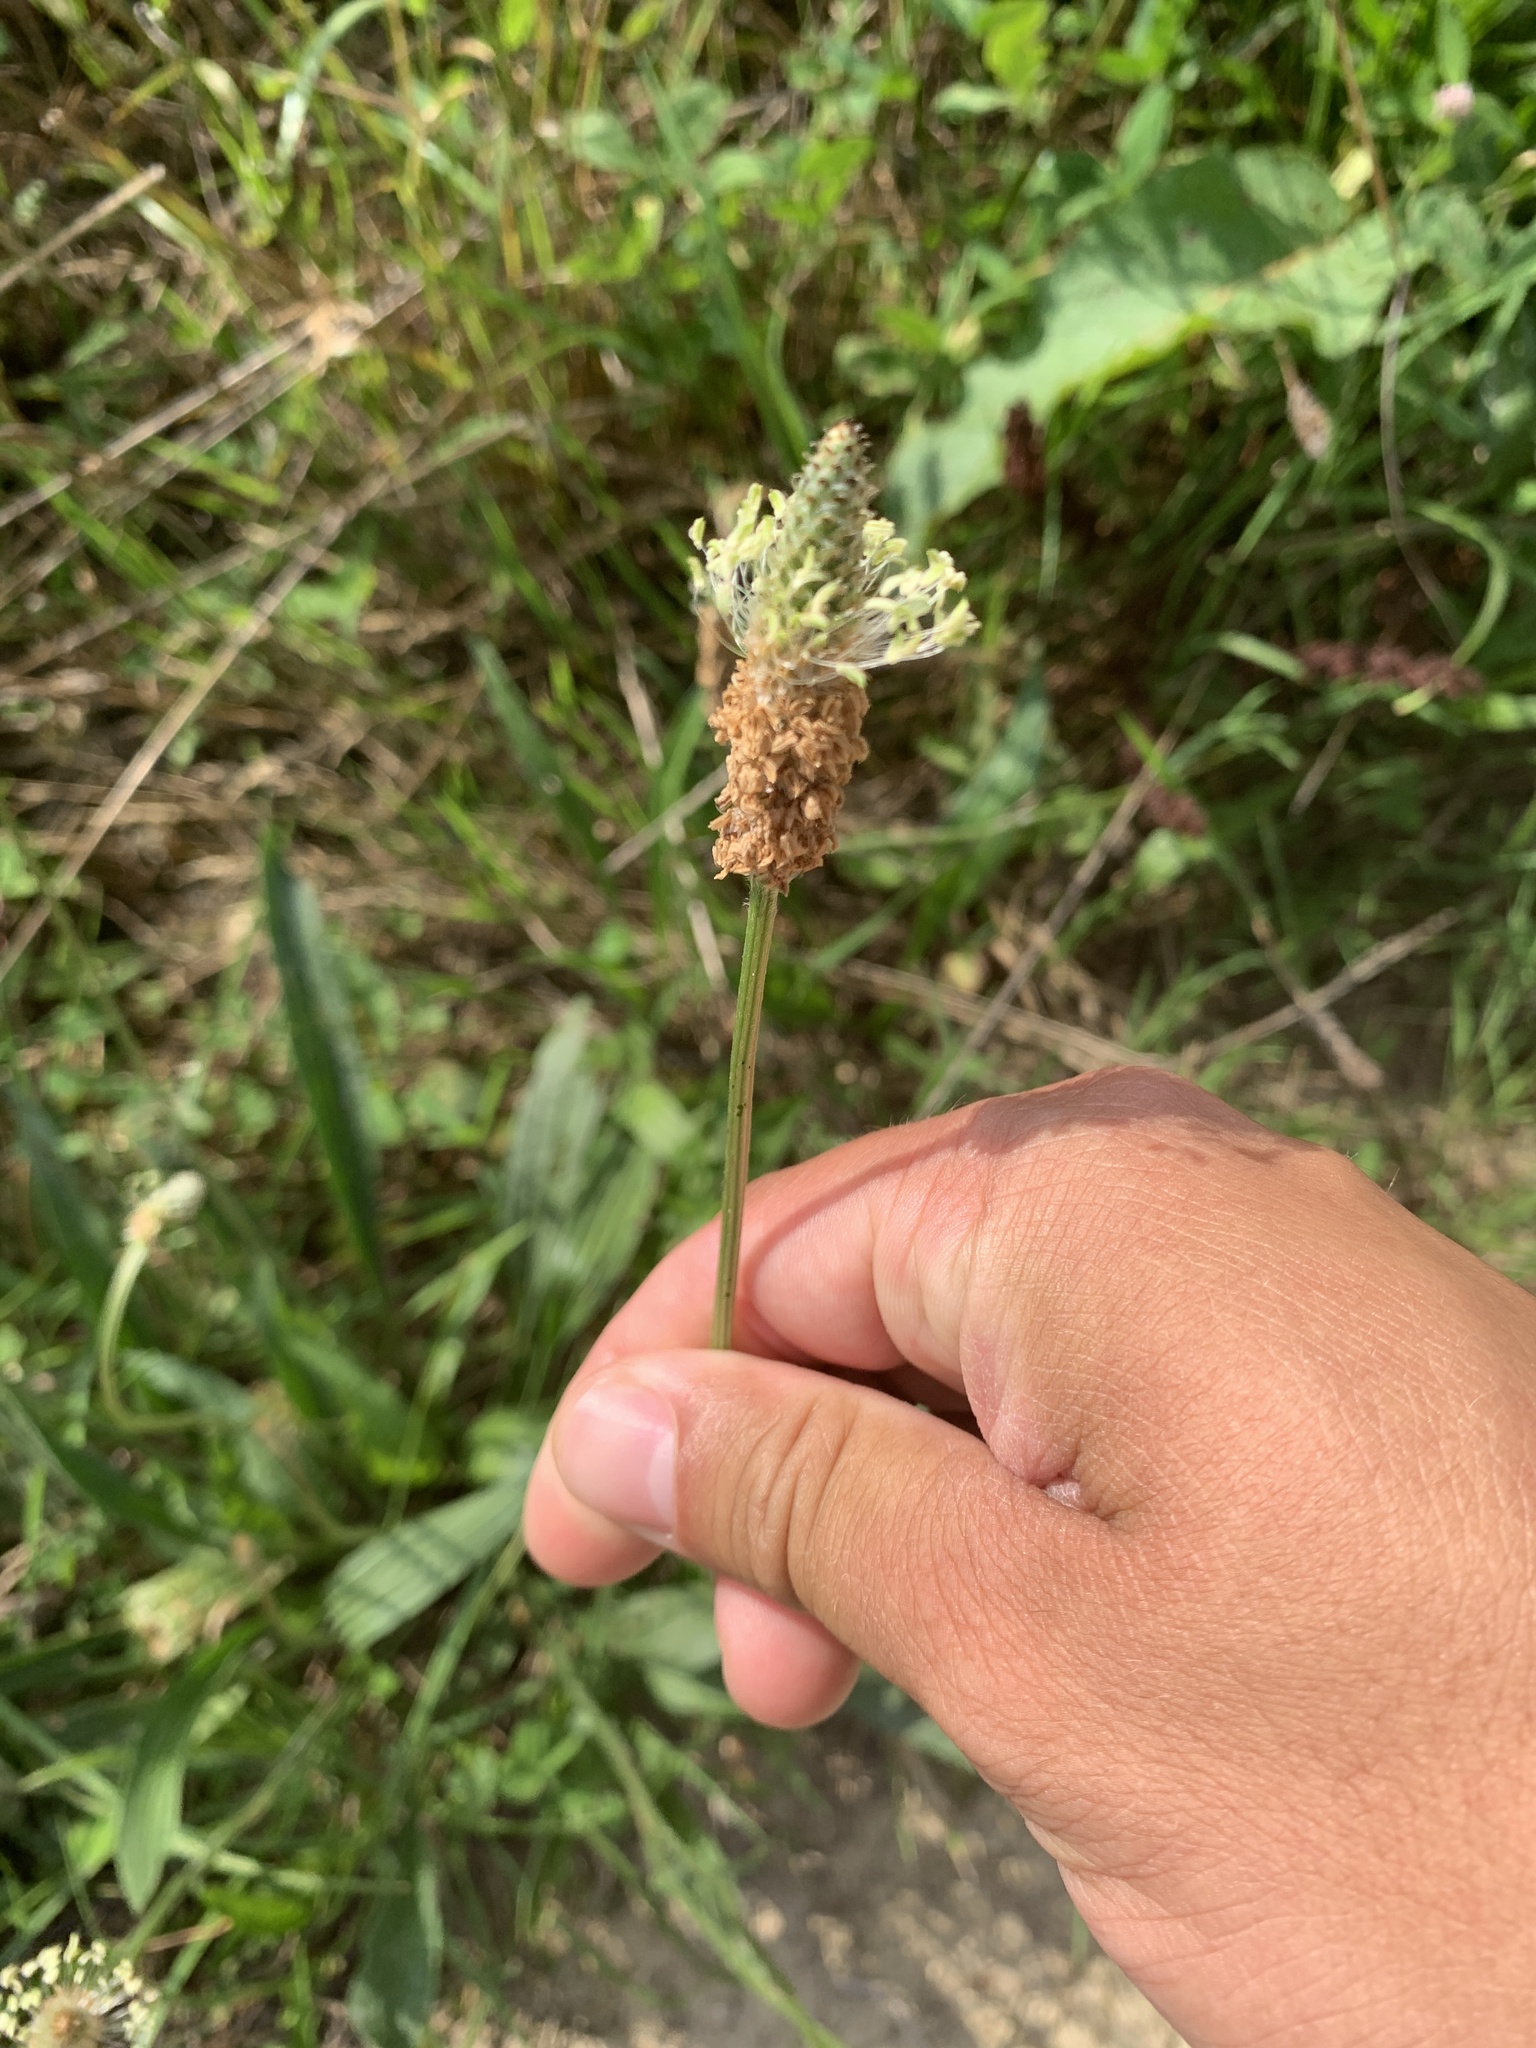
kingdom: Plantae
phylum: Tracheophyta
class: Magnoliopsida
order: Lamiales
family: Plantaginaceae
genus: Plantago
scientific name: Plantago lanceolata
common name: Ribwort plantain
